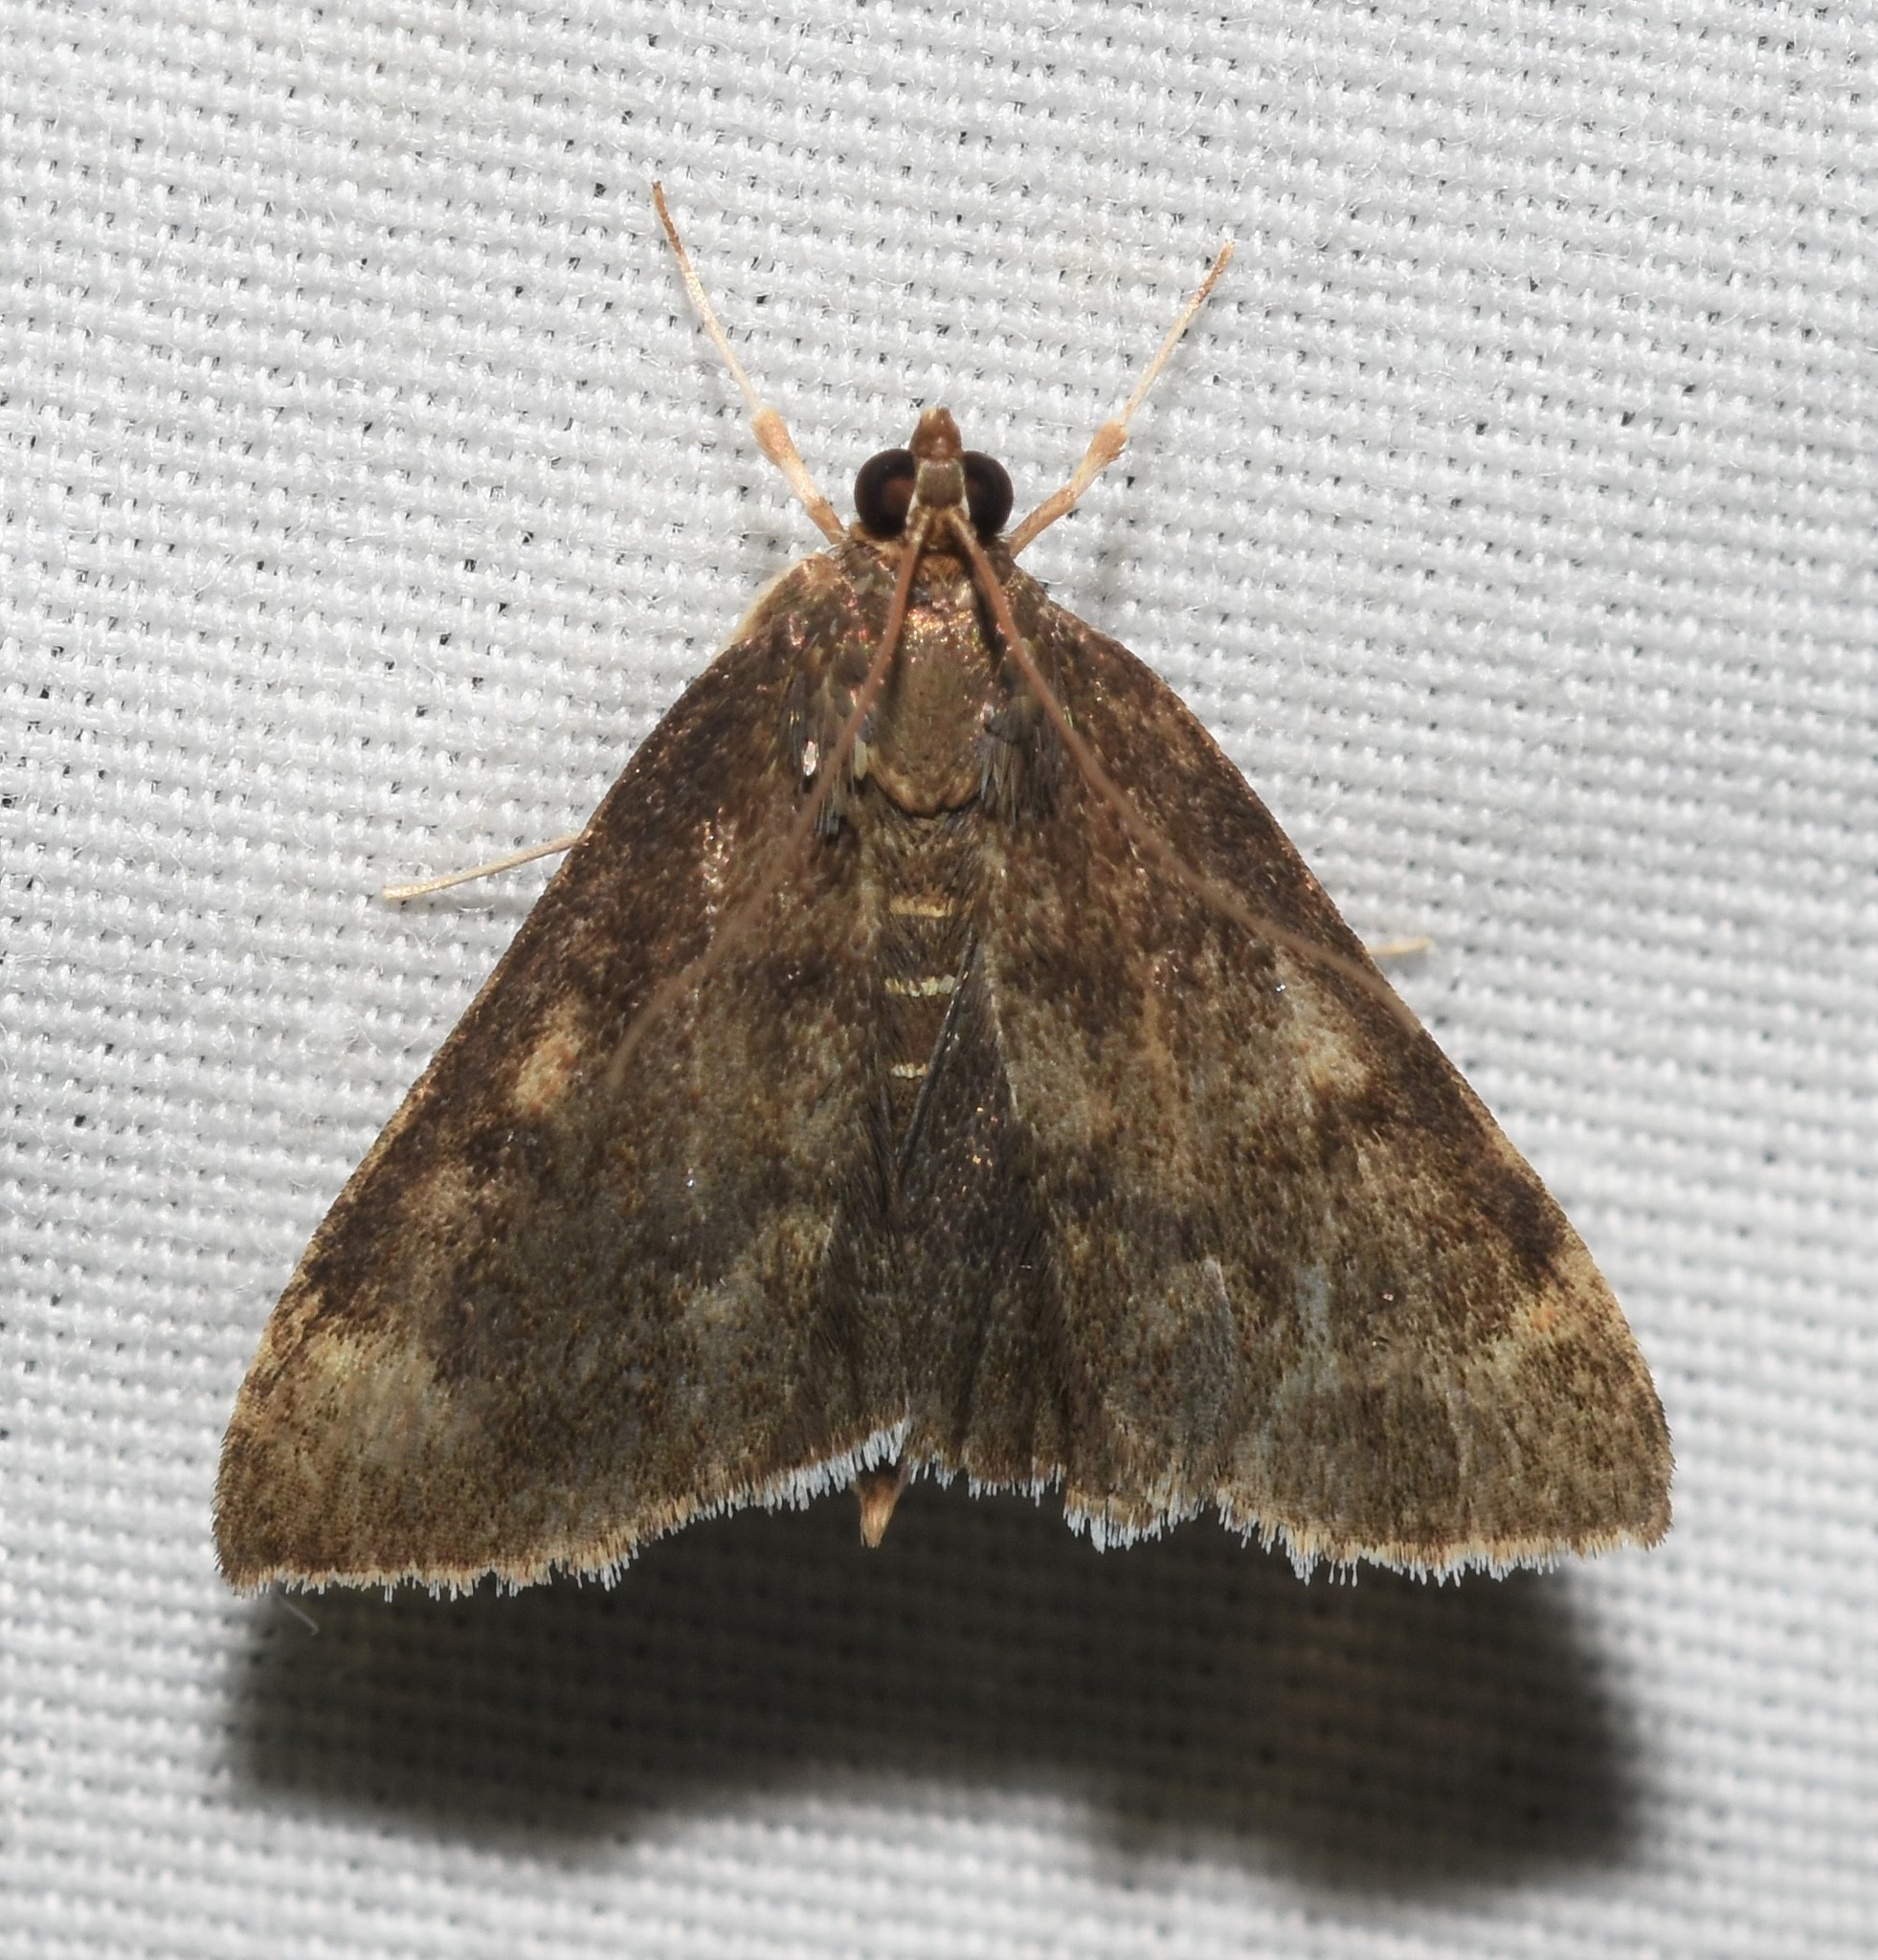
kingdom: Animalia
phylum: Arthropoda
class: Insecta
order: Lepidoptera
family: Crambidae
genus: Pyrausta
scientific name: Pyrausta niveicilialis
